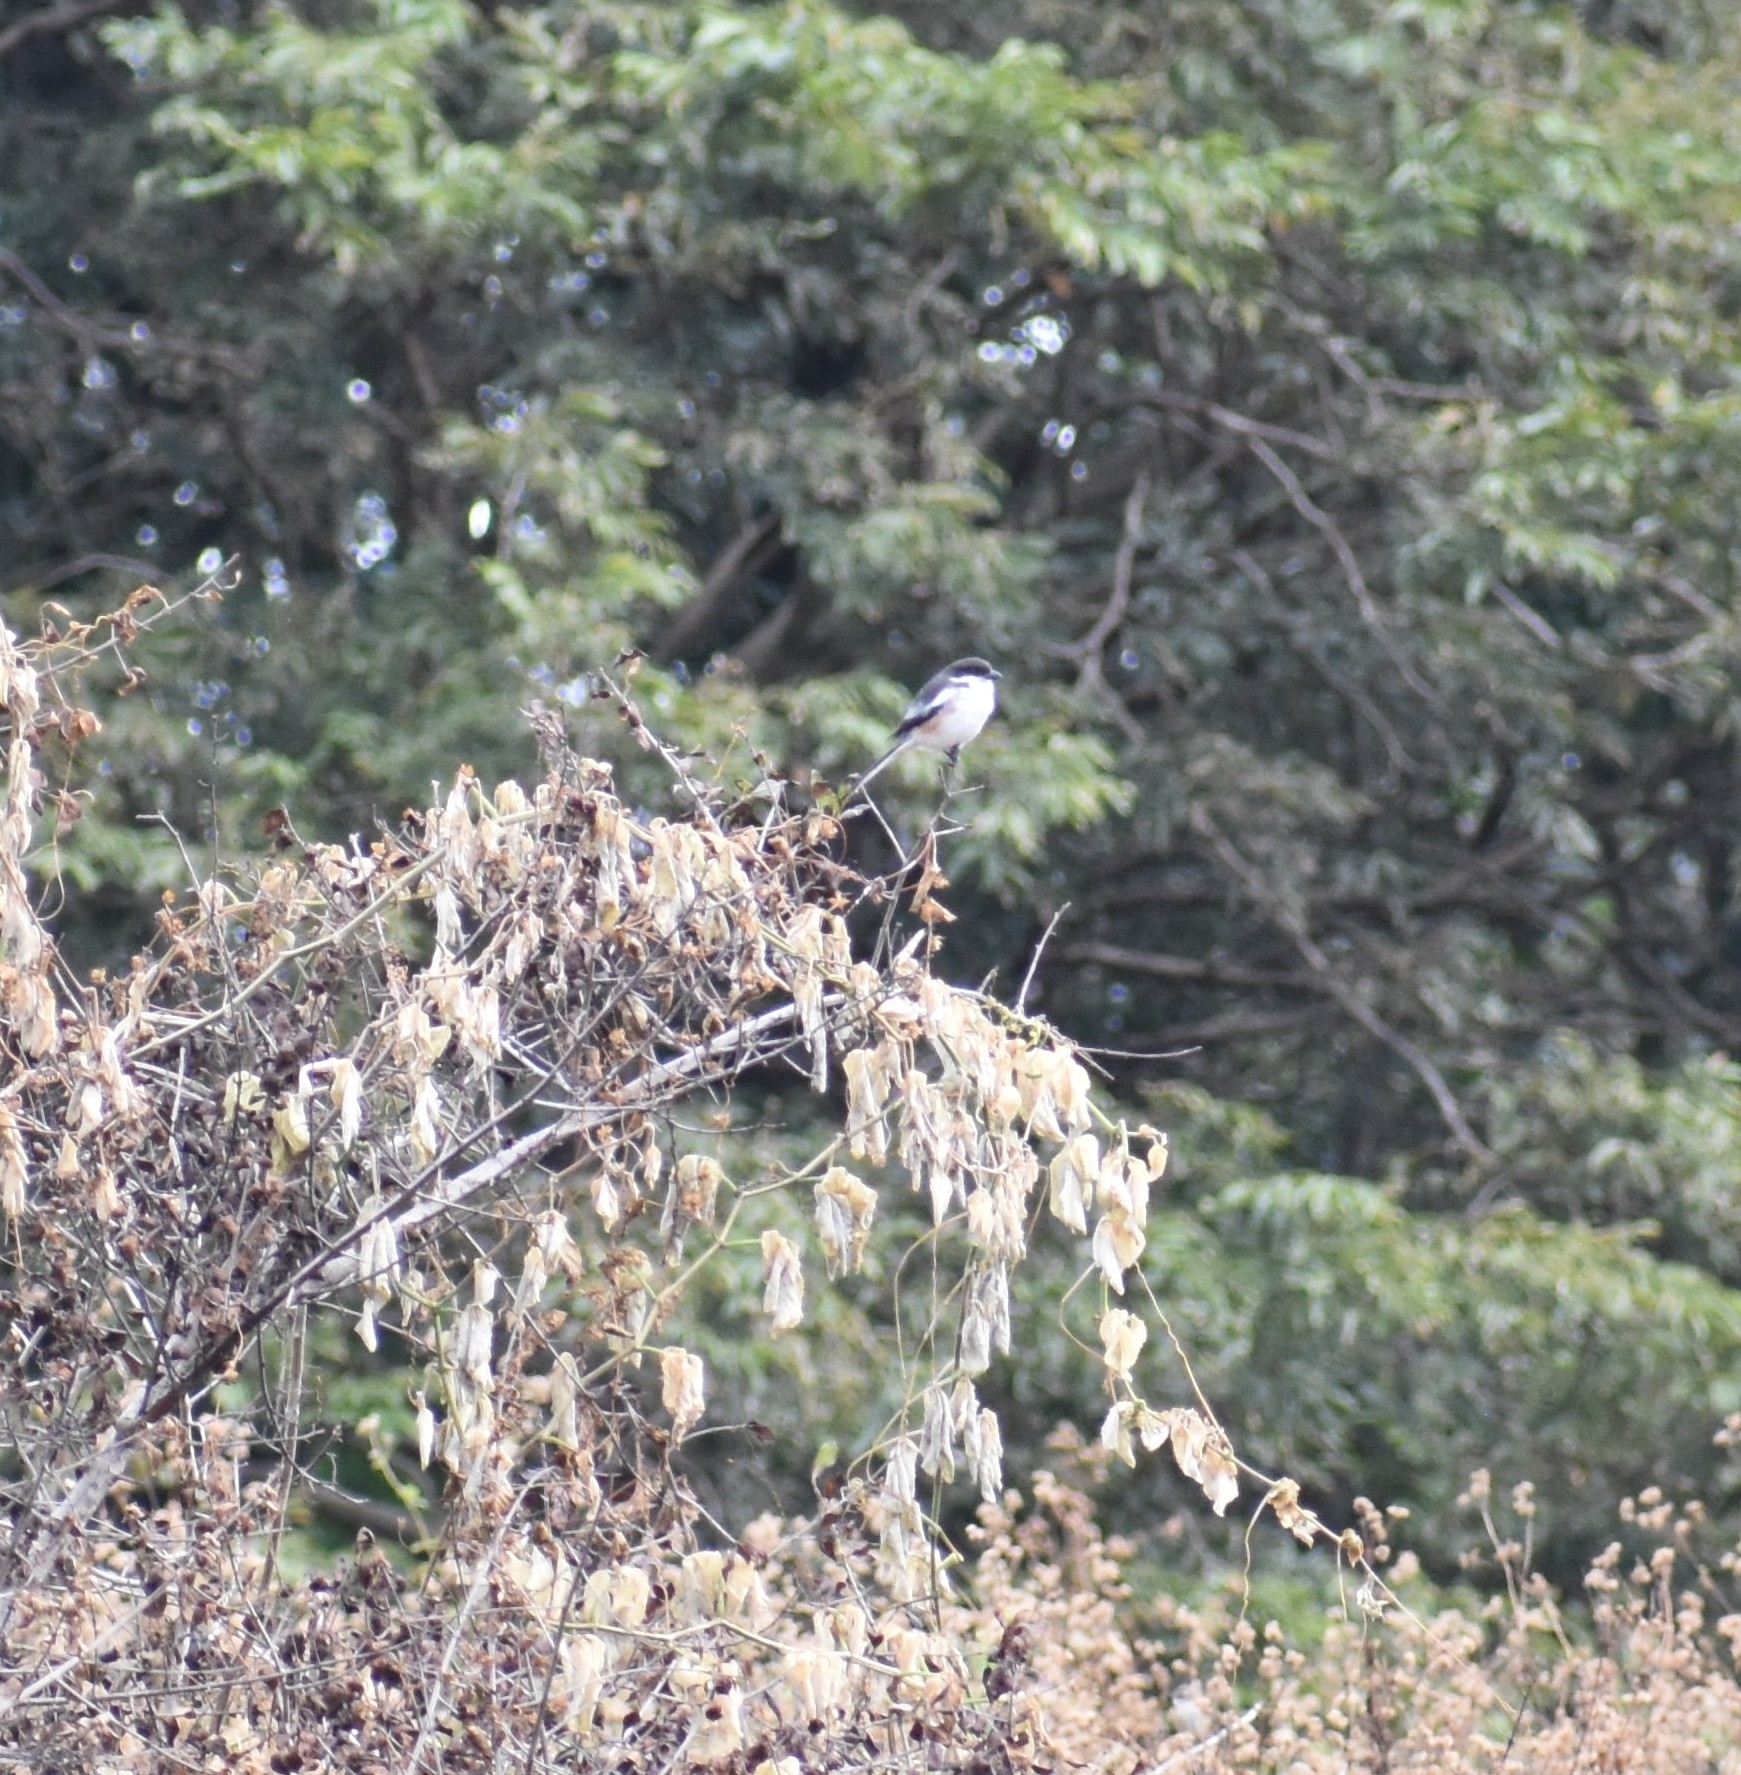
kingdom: Animalia
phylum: Chordata
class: Aves
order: Passeriformes
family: Laniidae
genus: Lanius
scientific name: Lanius collaris
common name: Southern fiscal
